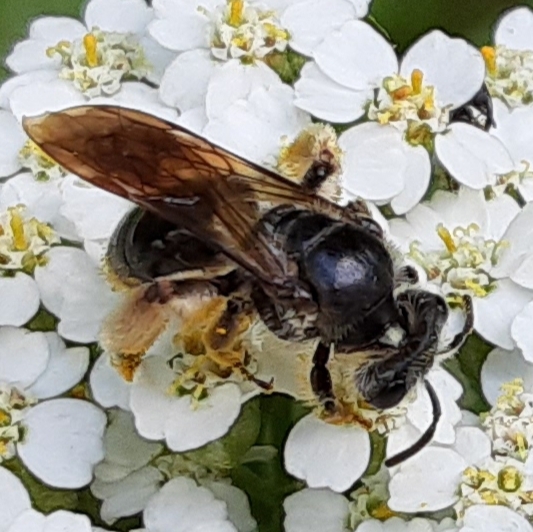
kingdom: Animalia
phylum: Arthropoda
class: Insecta
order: Hymenoptera
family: Andrenidae
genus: Andrena
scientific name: Andrena
